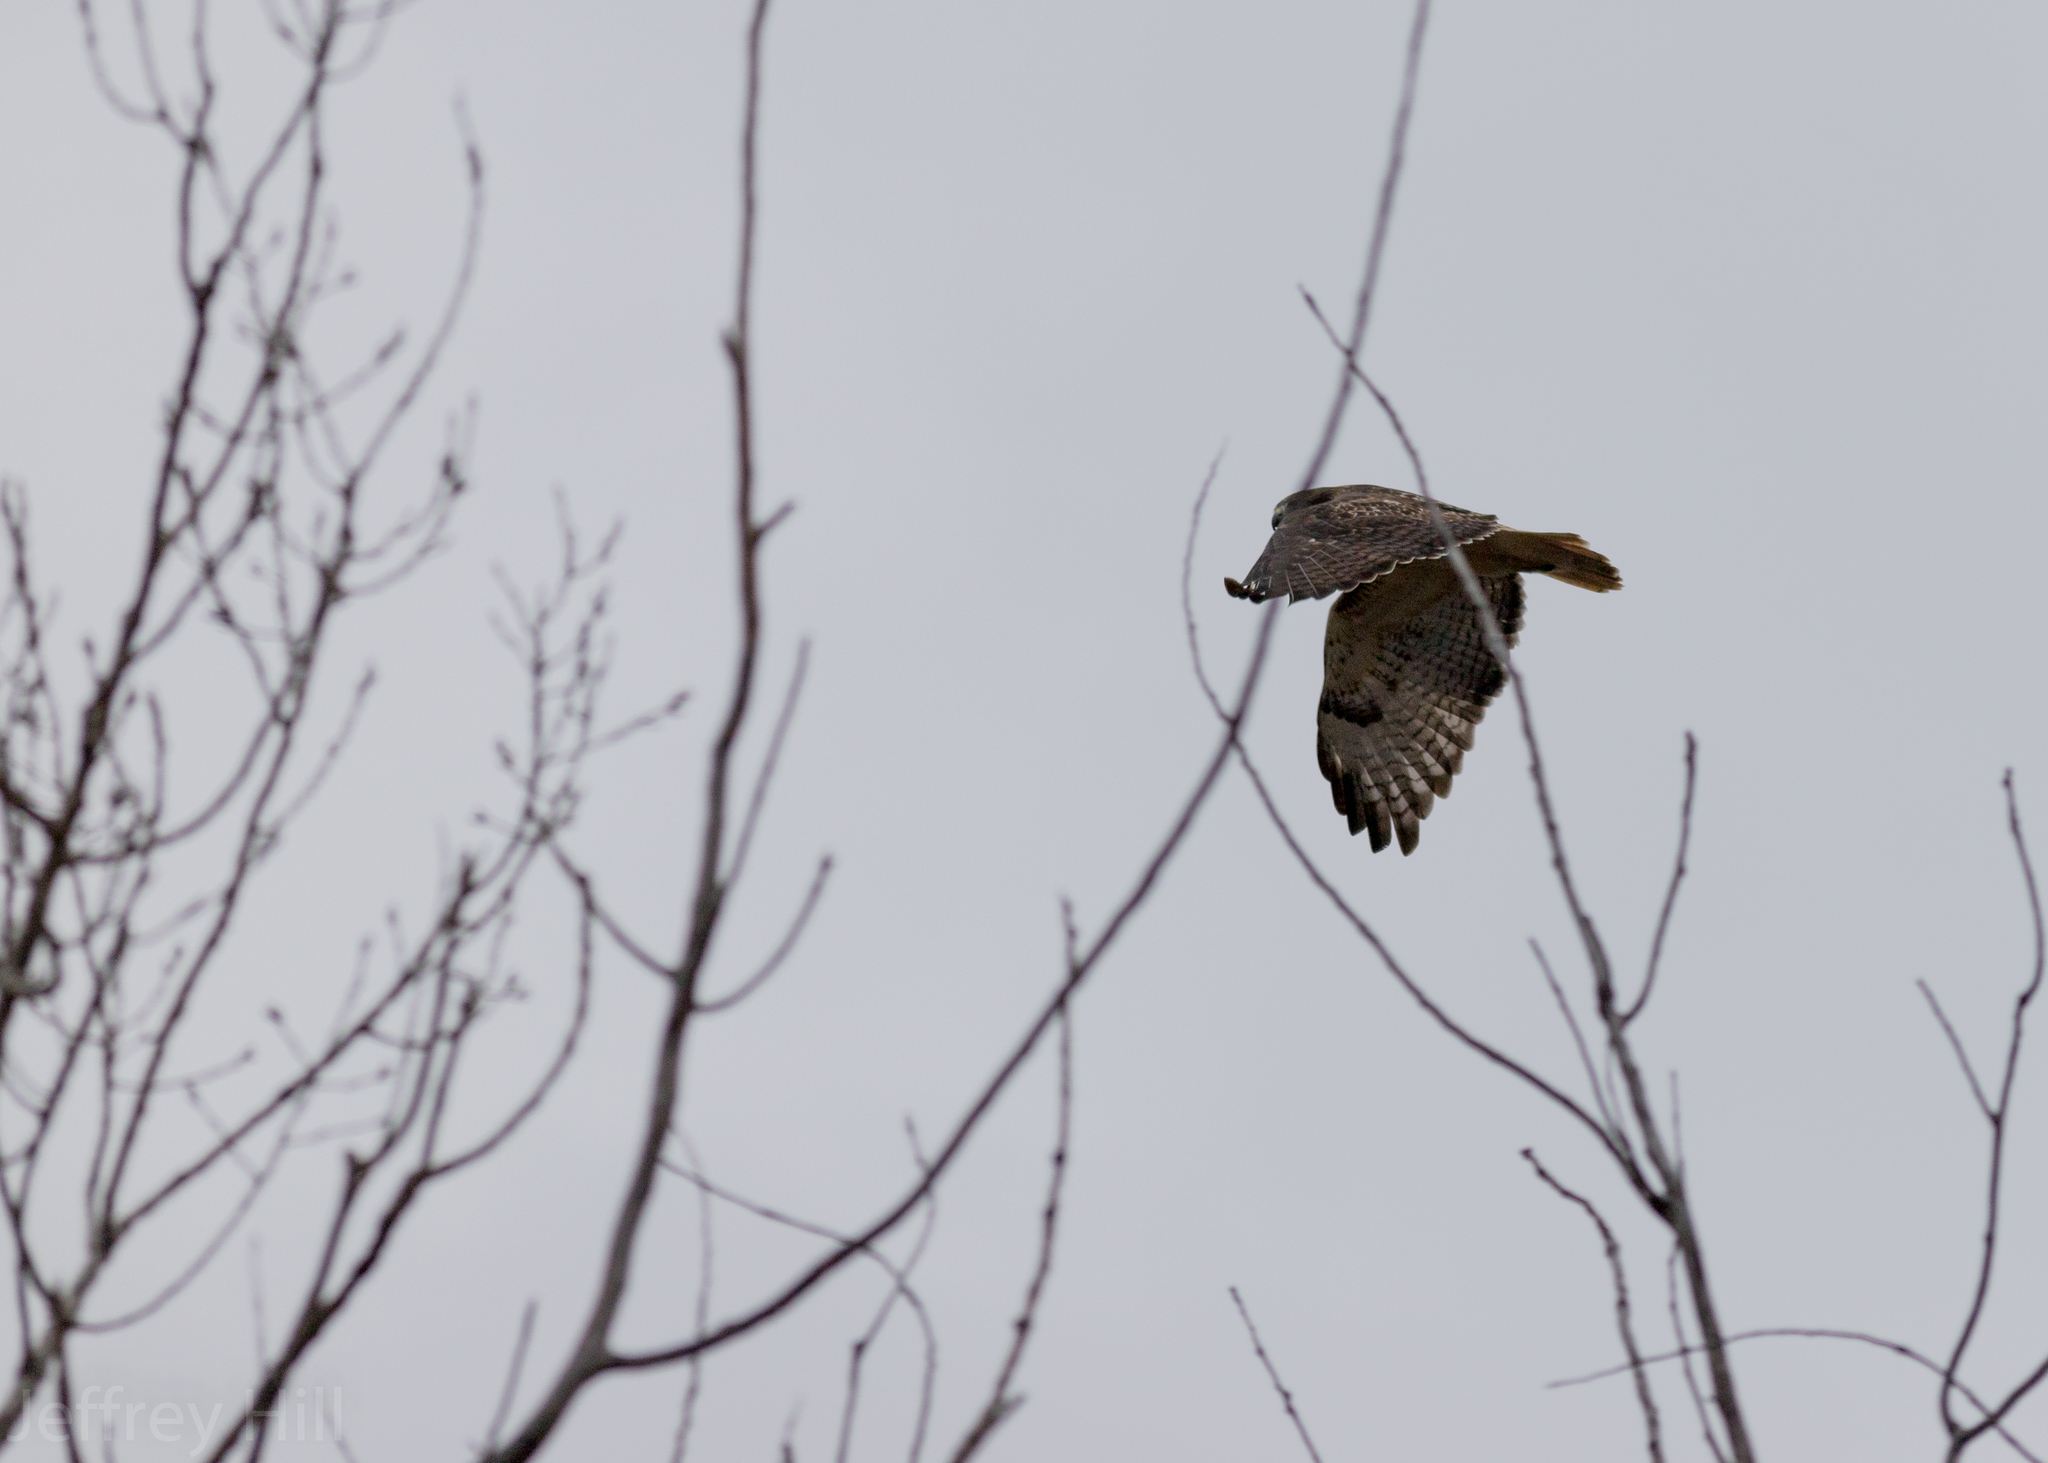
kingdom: Animalia
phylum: Chordata
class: Aves
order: Accipitriformes
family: Accipitridae
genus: Buteo
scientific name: Buteo jamaicensis
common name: Red-tailed hawk
